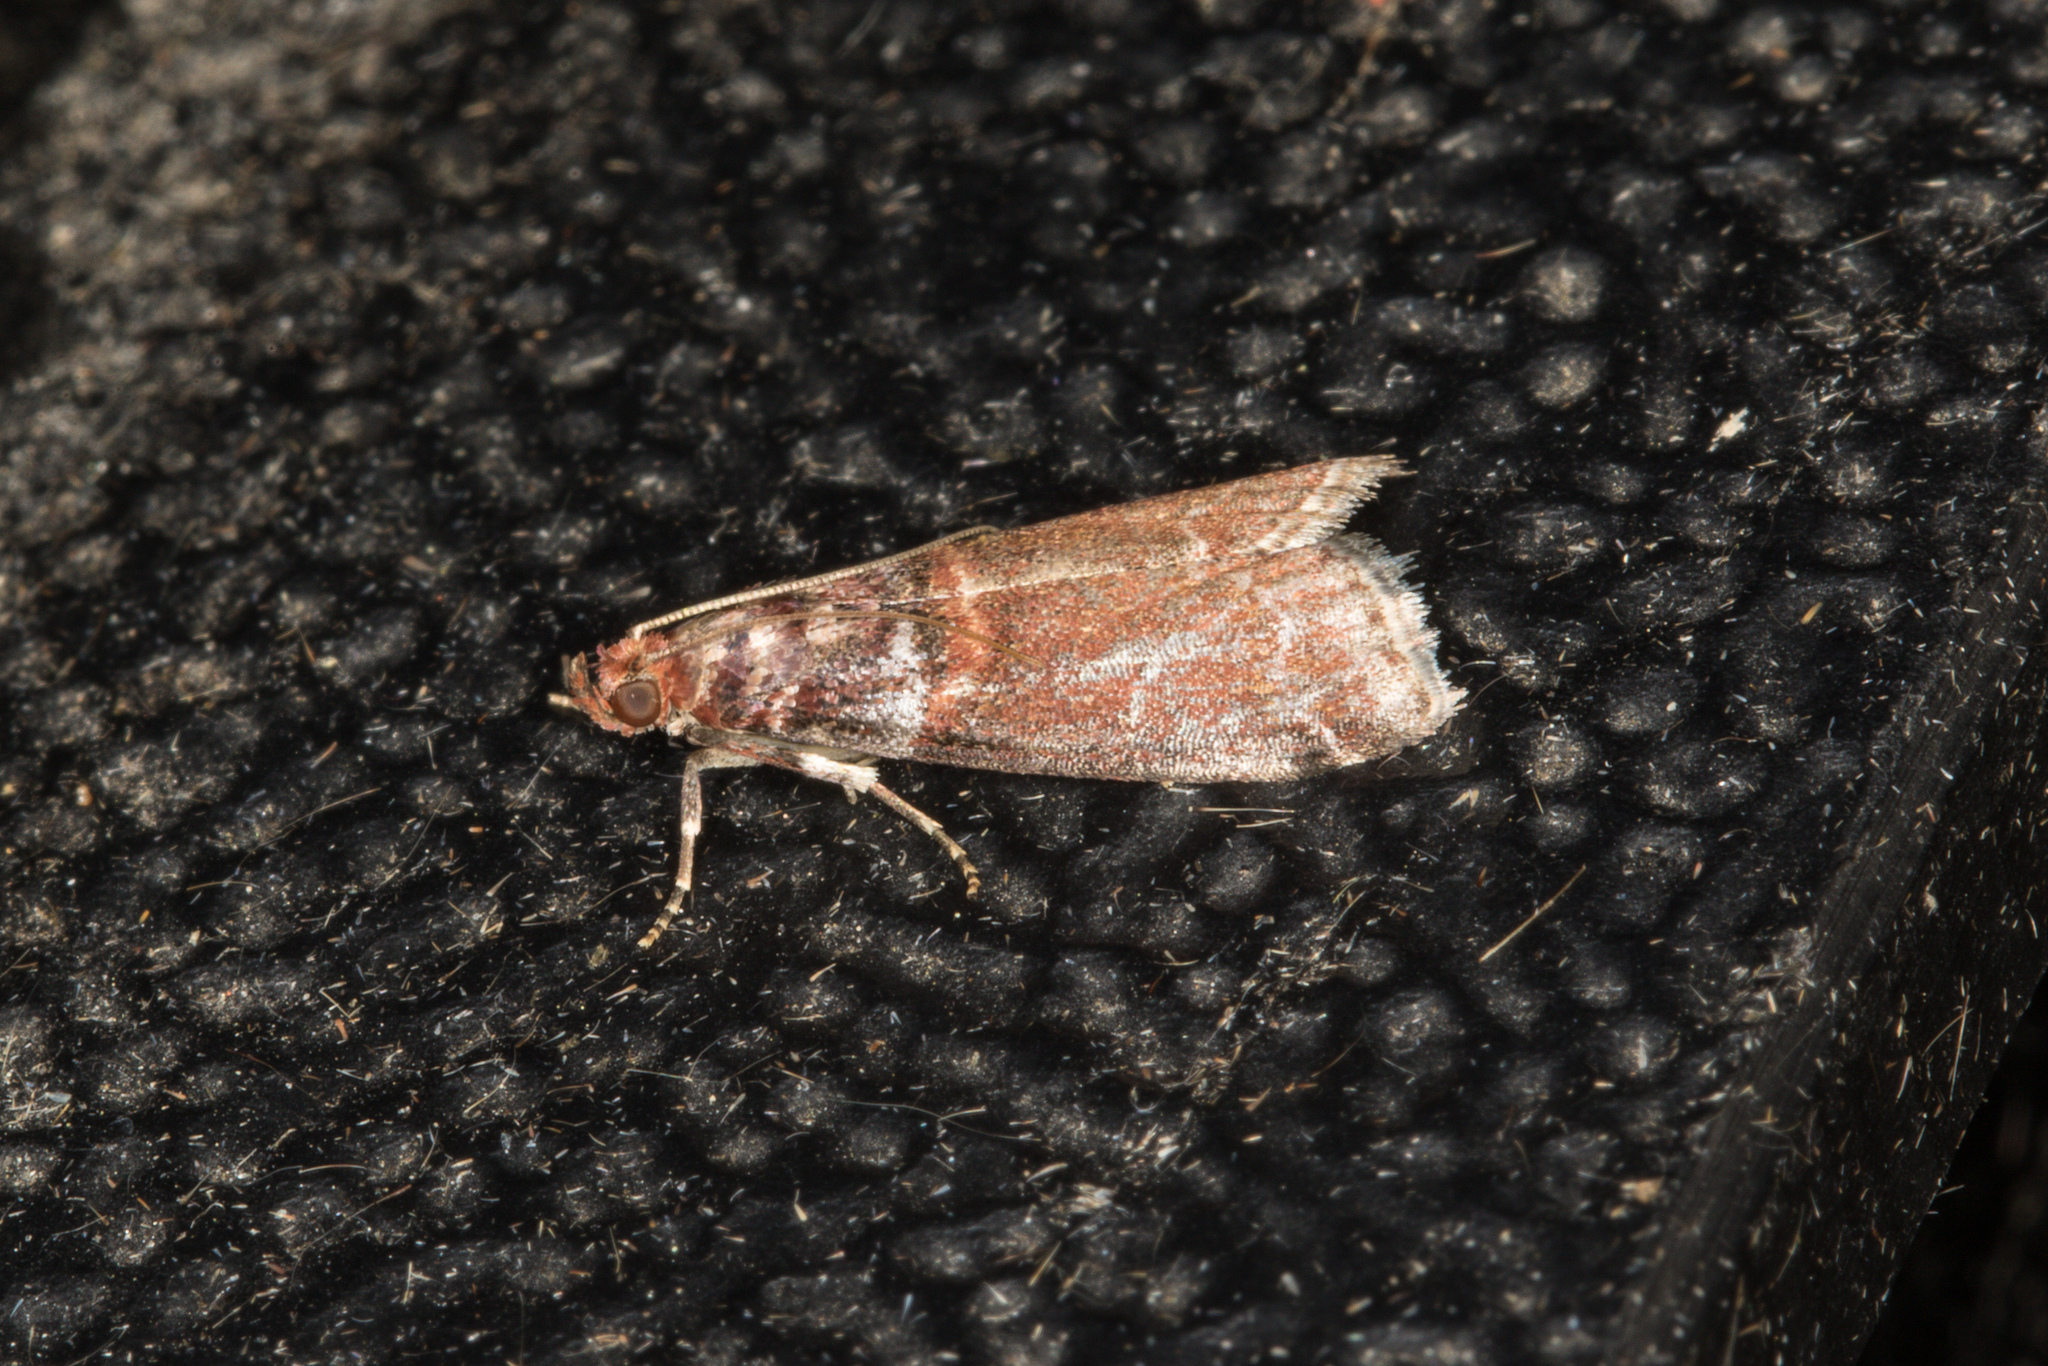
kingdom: Animalia
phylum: Arthropoda
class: Insecta
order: Lepidoptera
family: Pyralidae
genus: Acrobasis
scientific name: Acrobasis advenella
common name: Grey knot-horn
